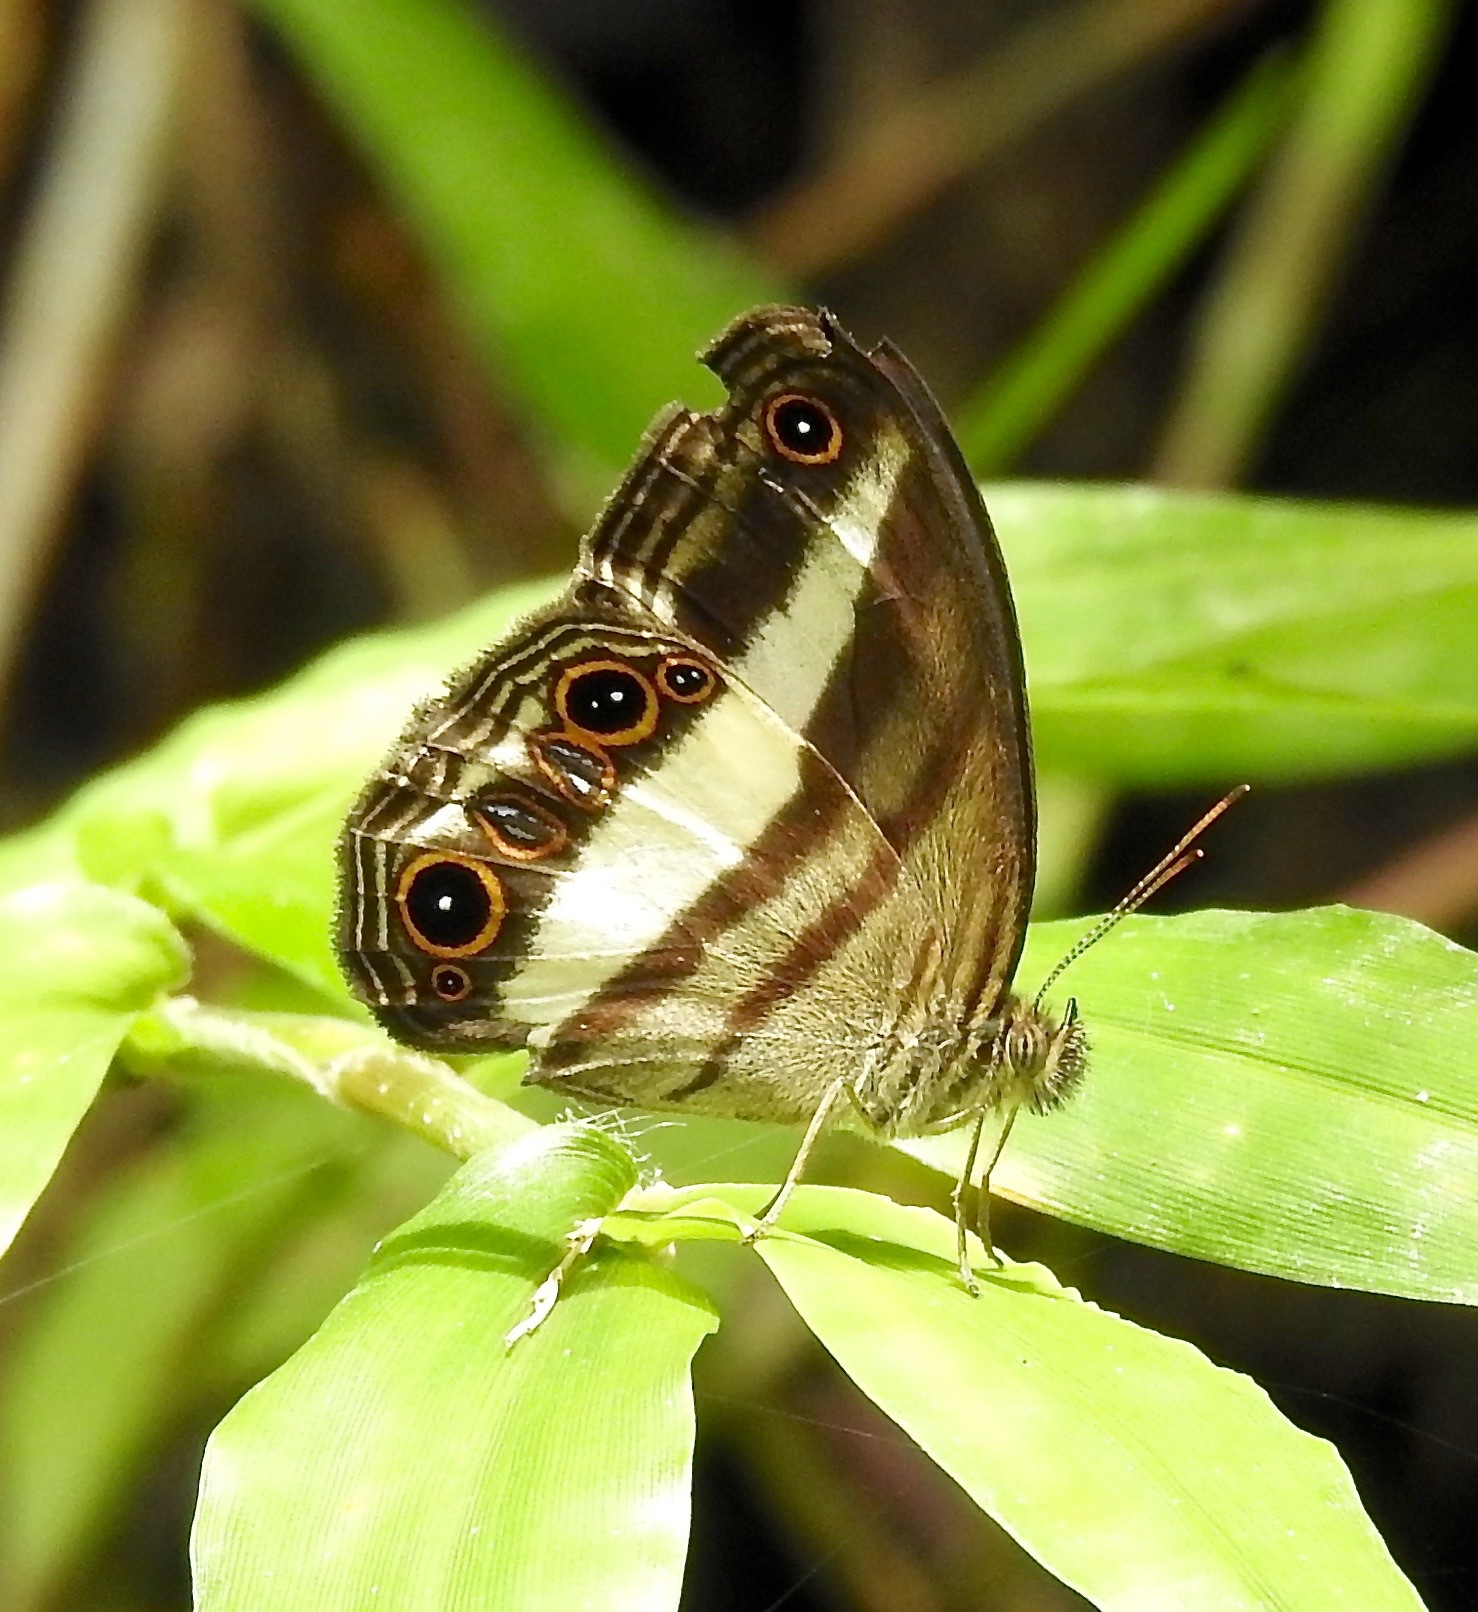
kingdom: Animalia
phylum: Arthropoda
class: Insecta
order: Lepidoptera
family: Nymphalidae
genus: Euptychoides
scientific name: Euptychoides albofasciata
